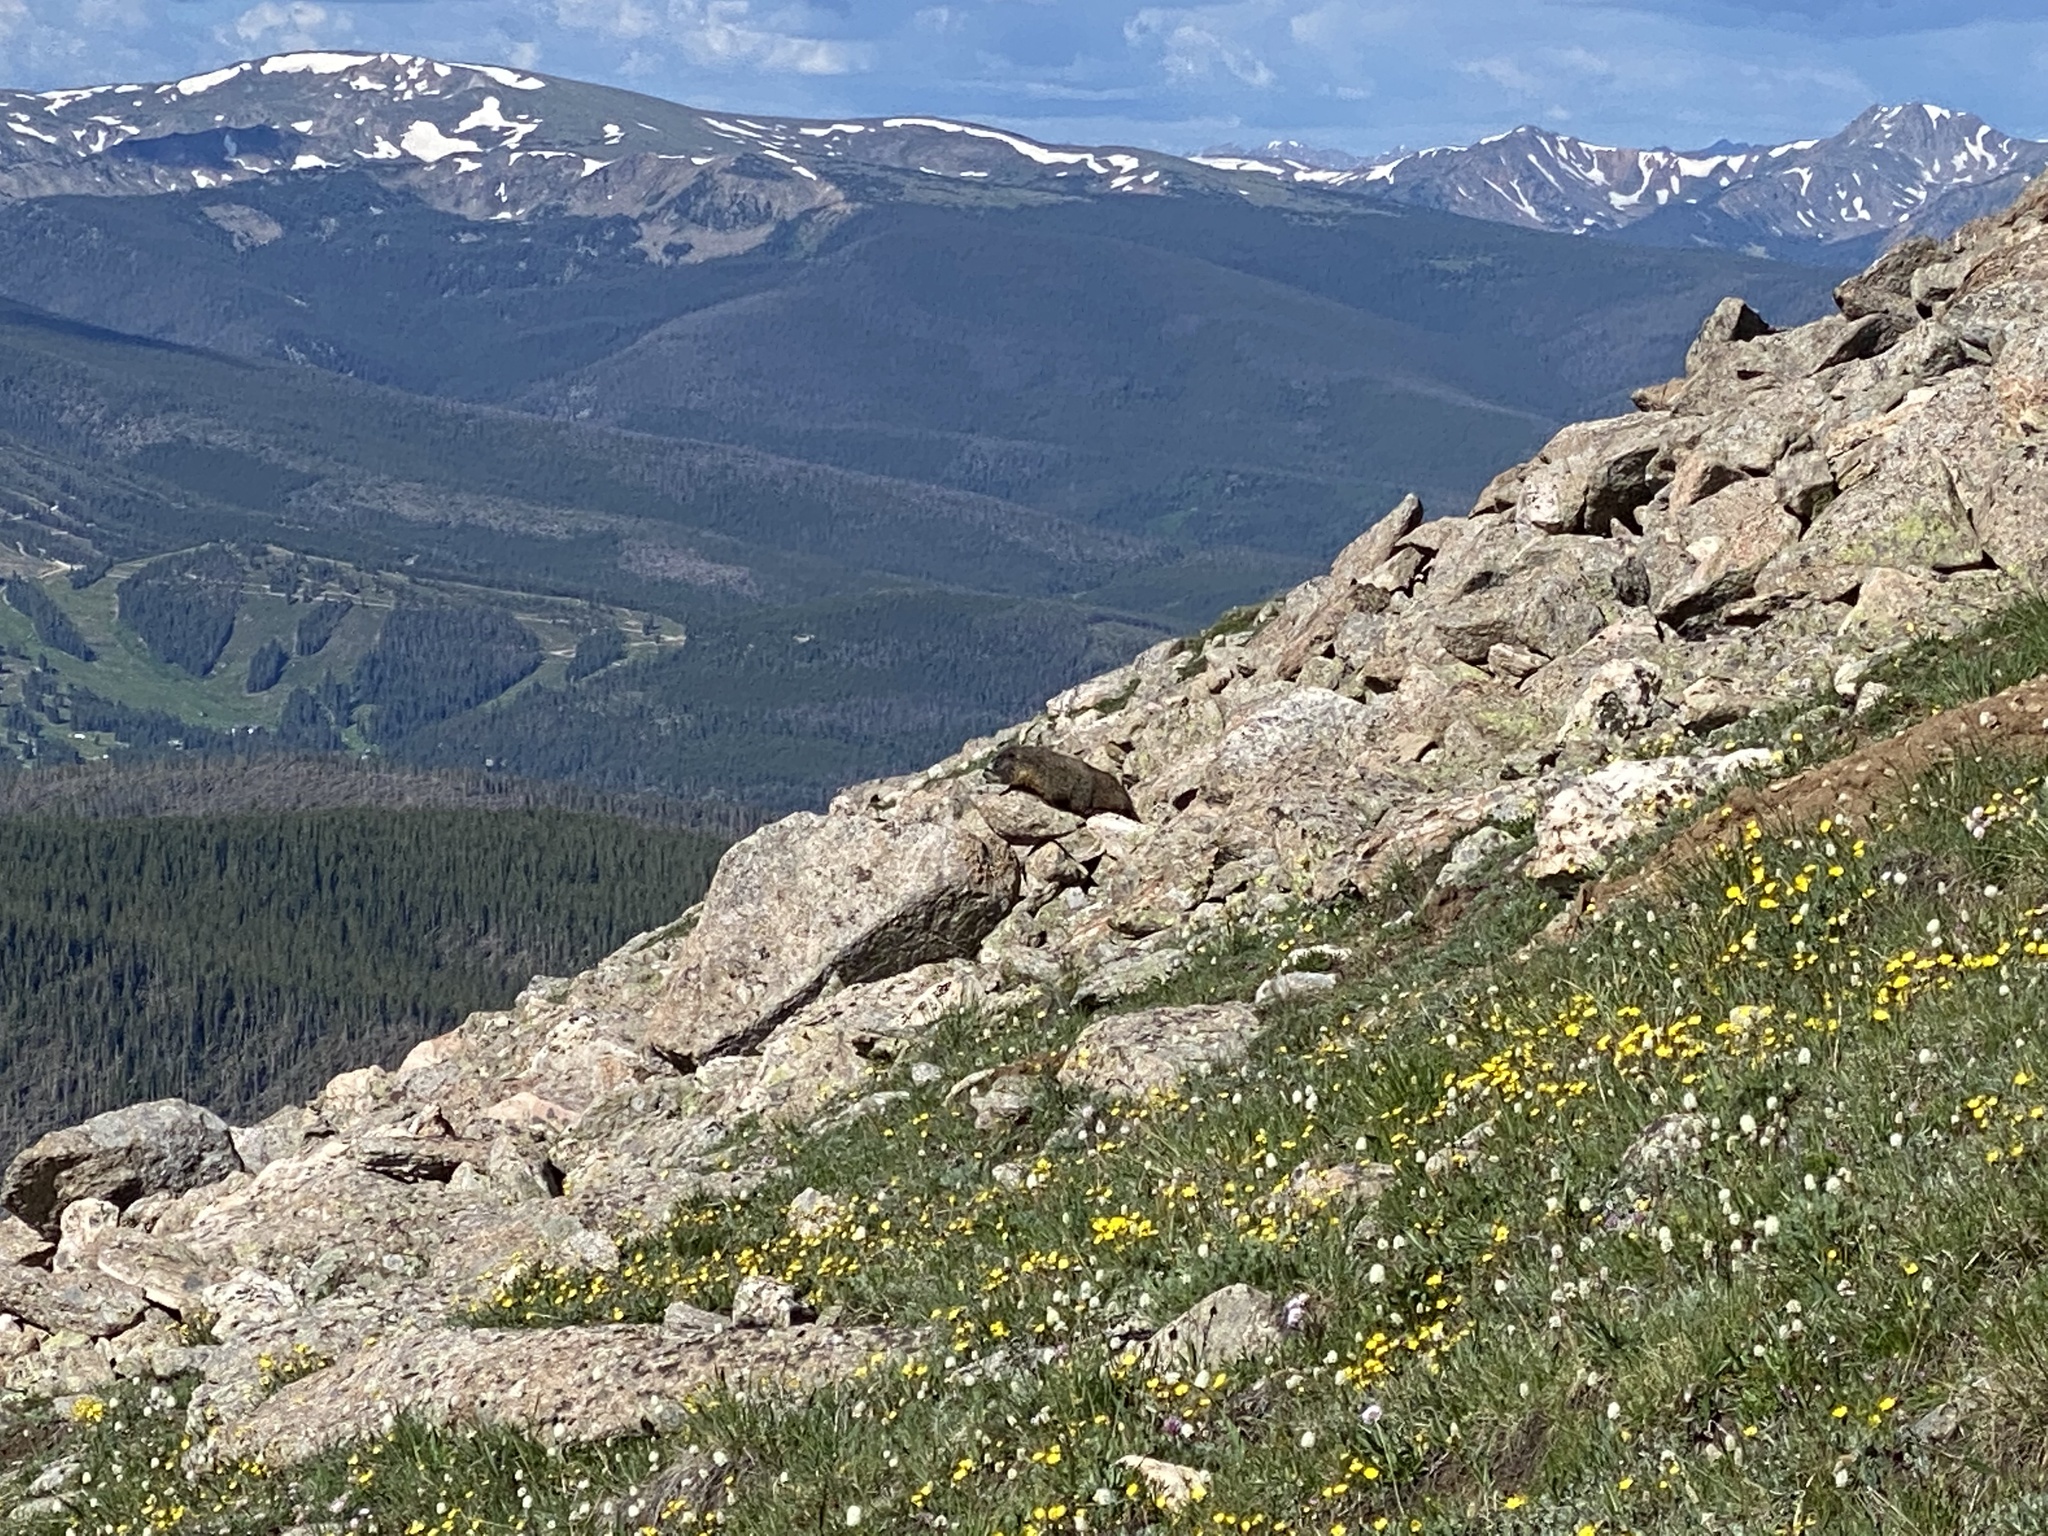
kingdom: Animalia
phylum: Chordata
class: Mammalia
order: Rodentia
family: Sciuridae
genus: Marmota
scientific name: Marmota flaviventris
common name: Yellow-bellied marmot
